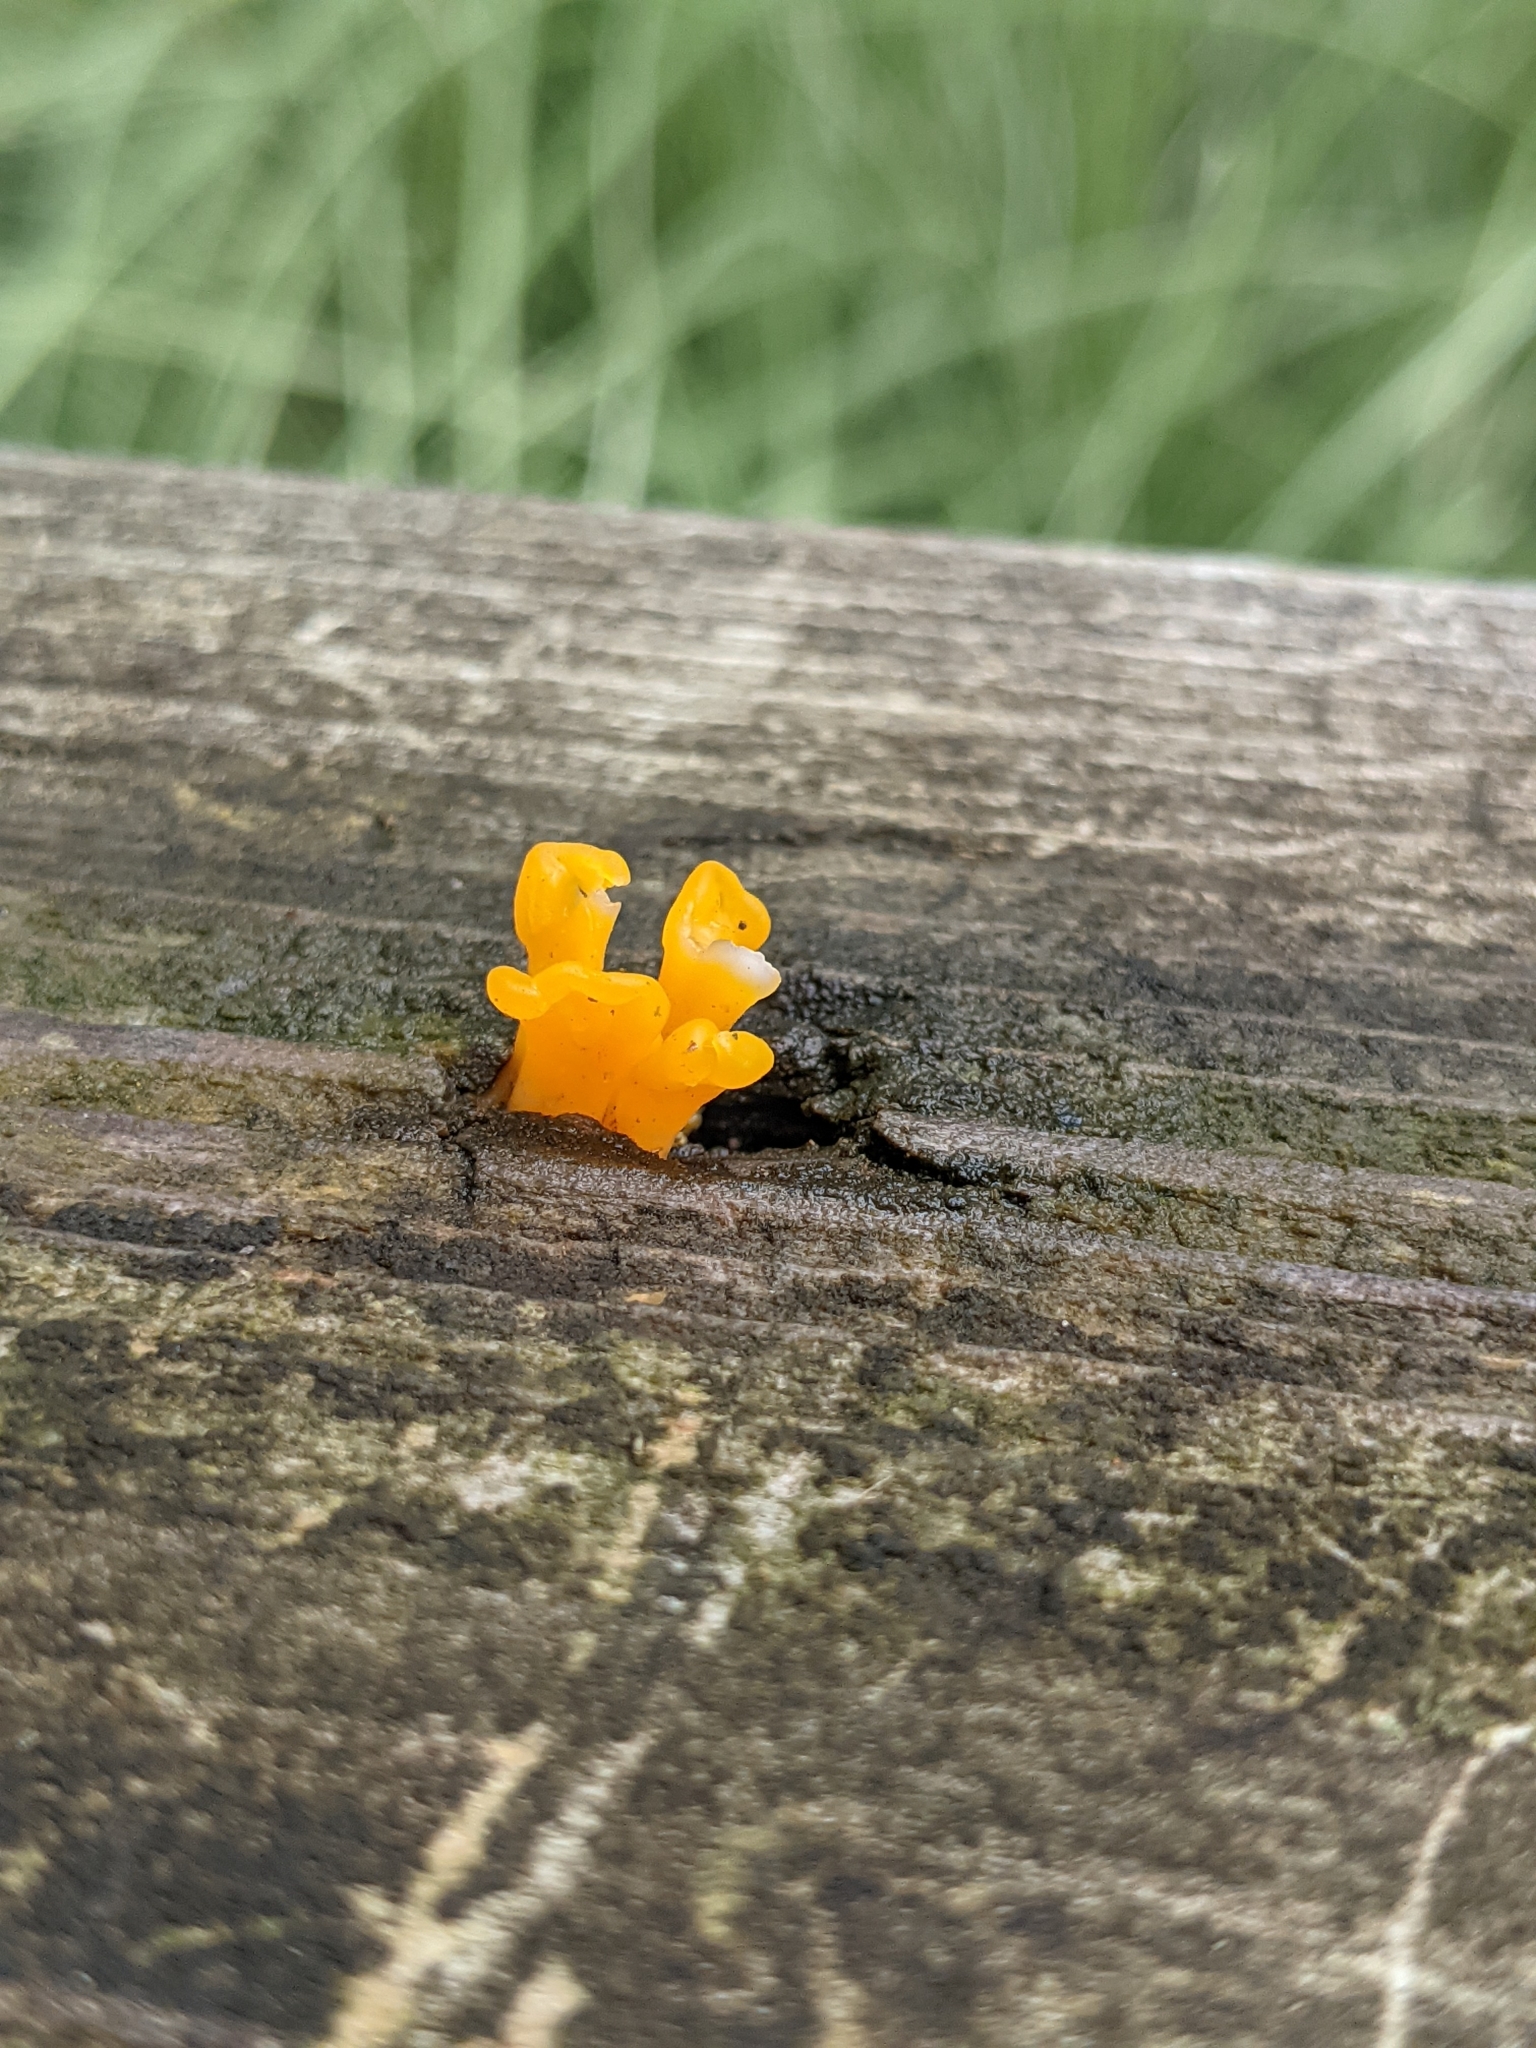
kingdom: Fungi
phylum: Basidiomycota
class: Dacrymycetes
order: Dacrymycetales
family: Dacrymycetaceae
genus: Dacrymyces
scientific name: Dacrymyces spathularius
